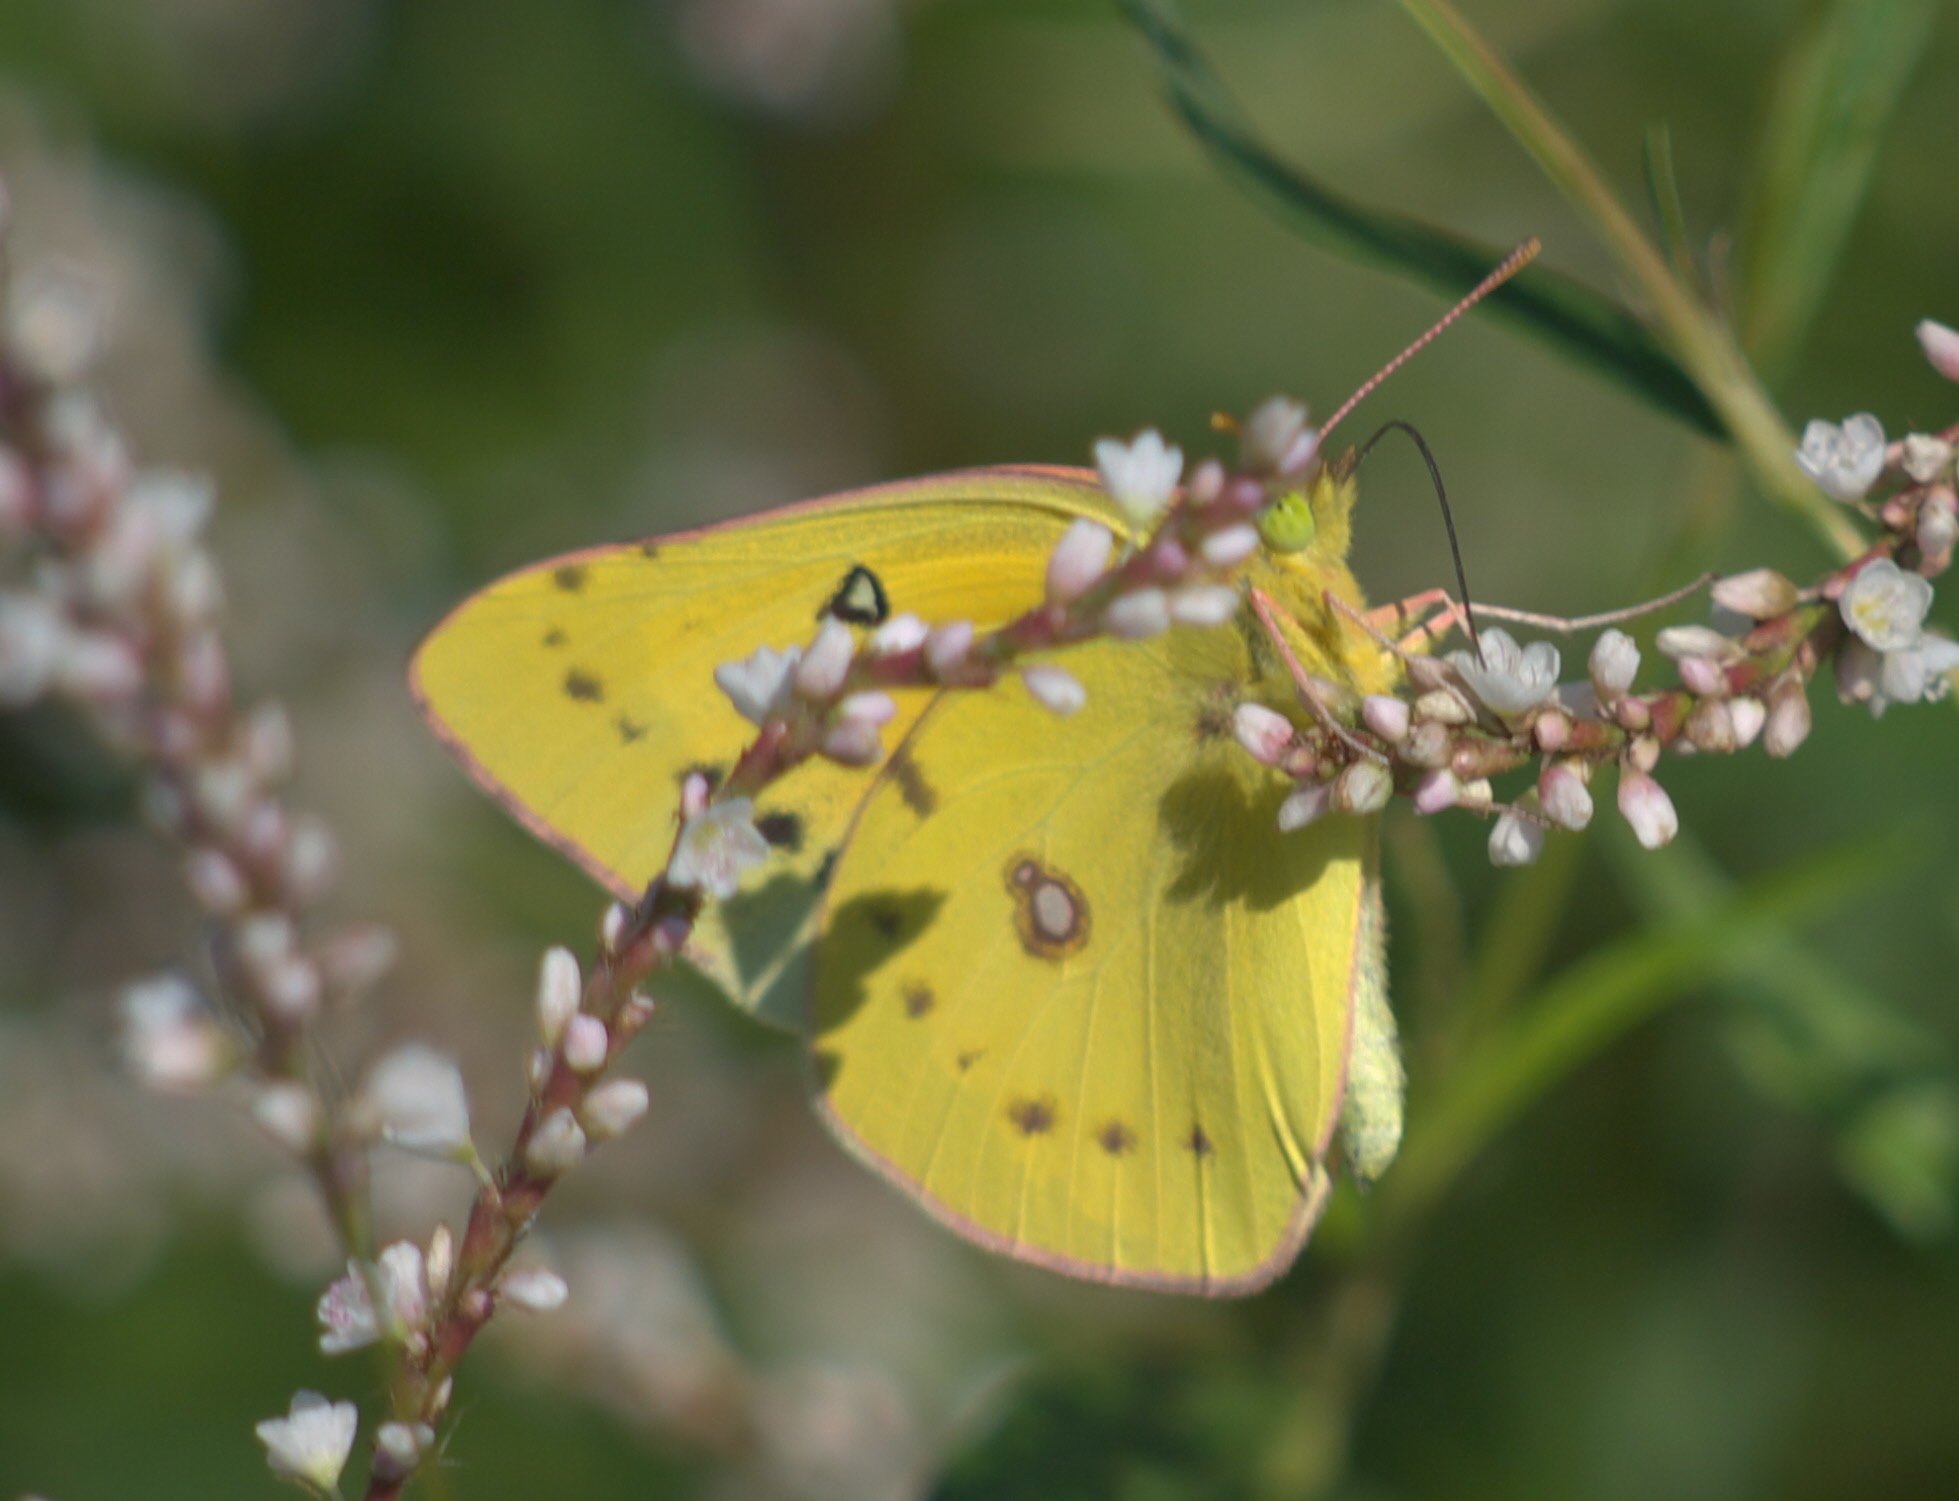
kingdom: Animalia
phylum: Arthropoda
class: Insecta
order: Lepidoptera
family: Pieridae
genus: Colias
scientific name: Colias eurytheme
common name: Alfalfa butterfly
